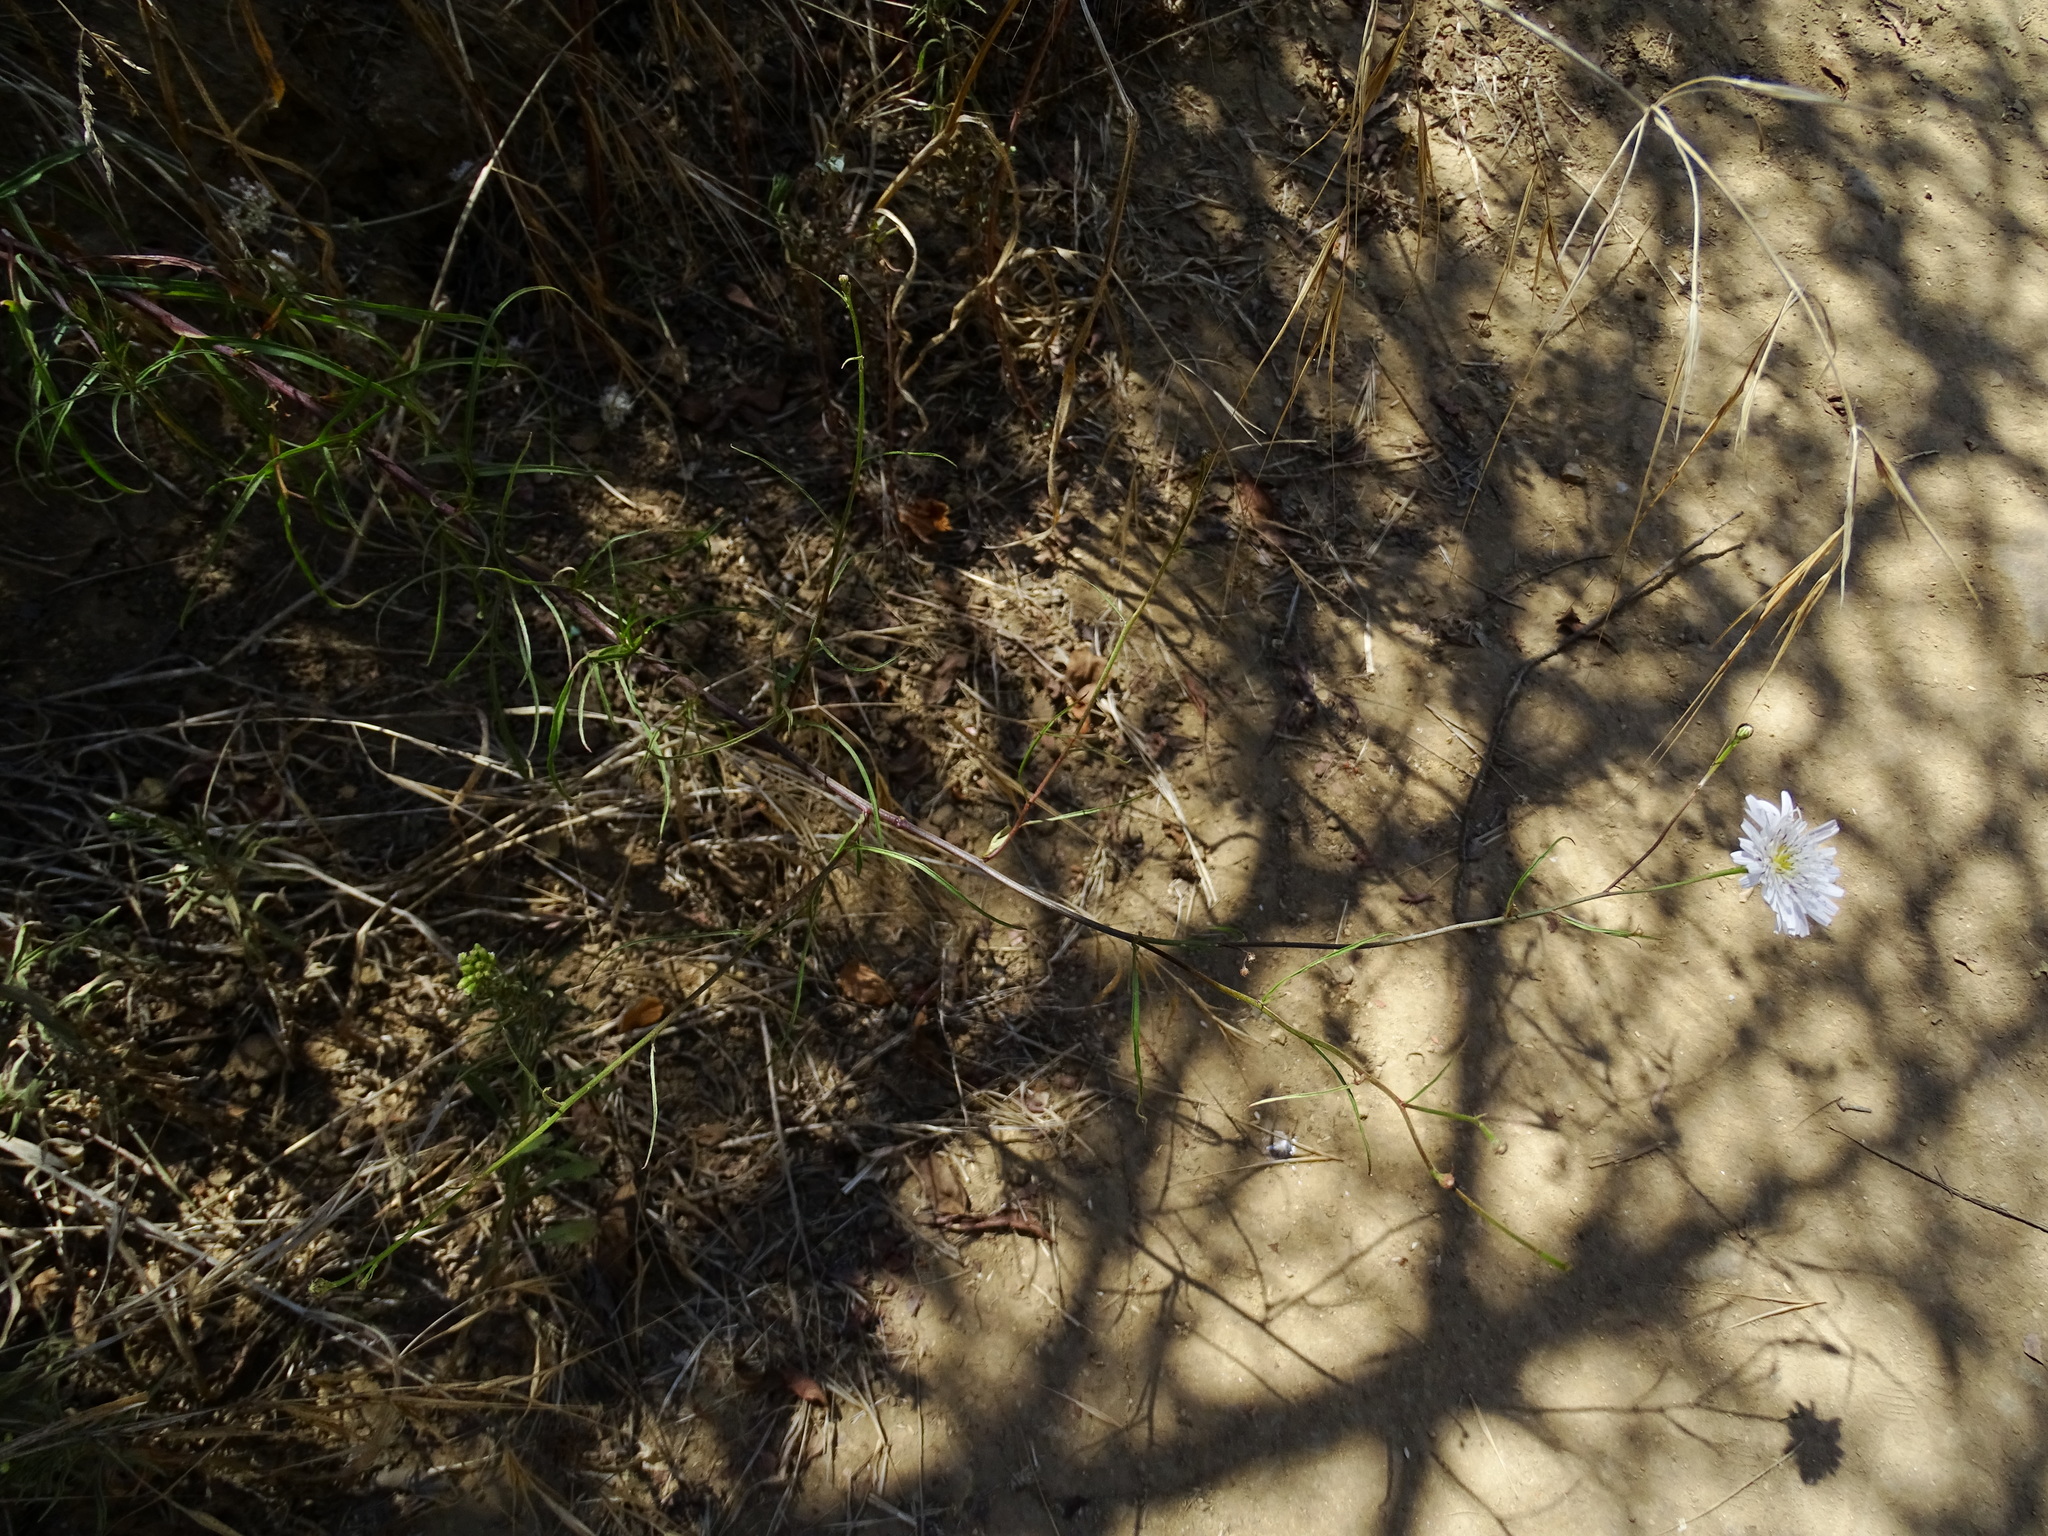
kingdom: Plantae
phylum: Tracheophyta
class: Magnoliopsida
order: Asterales
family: Asteraceae
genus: Malacothrix
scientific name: Malacothrix saxatilis
